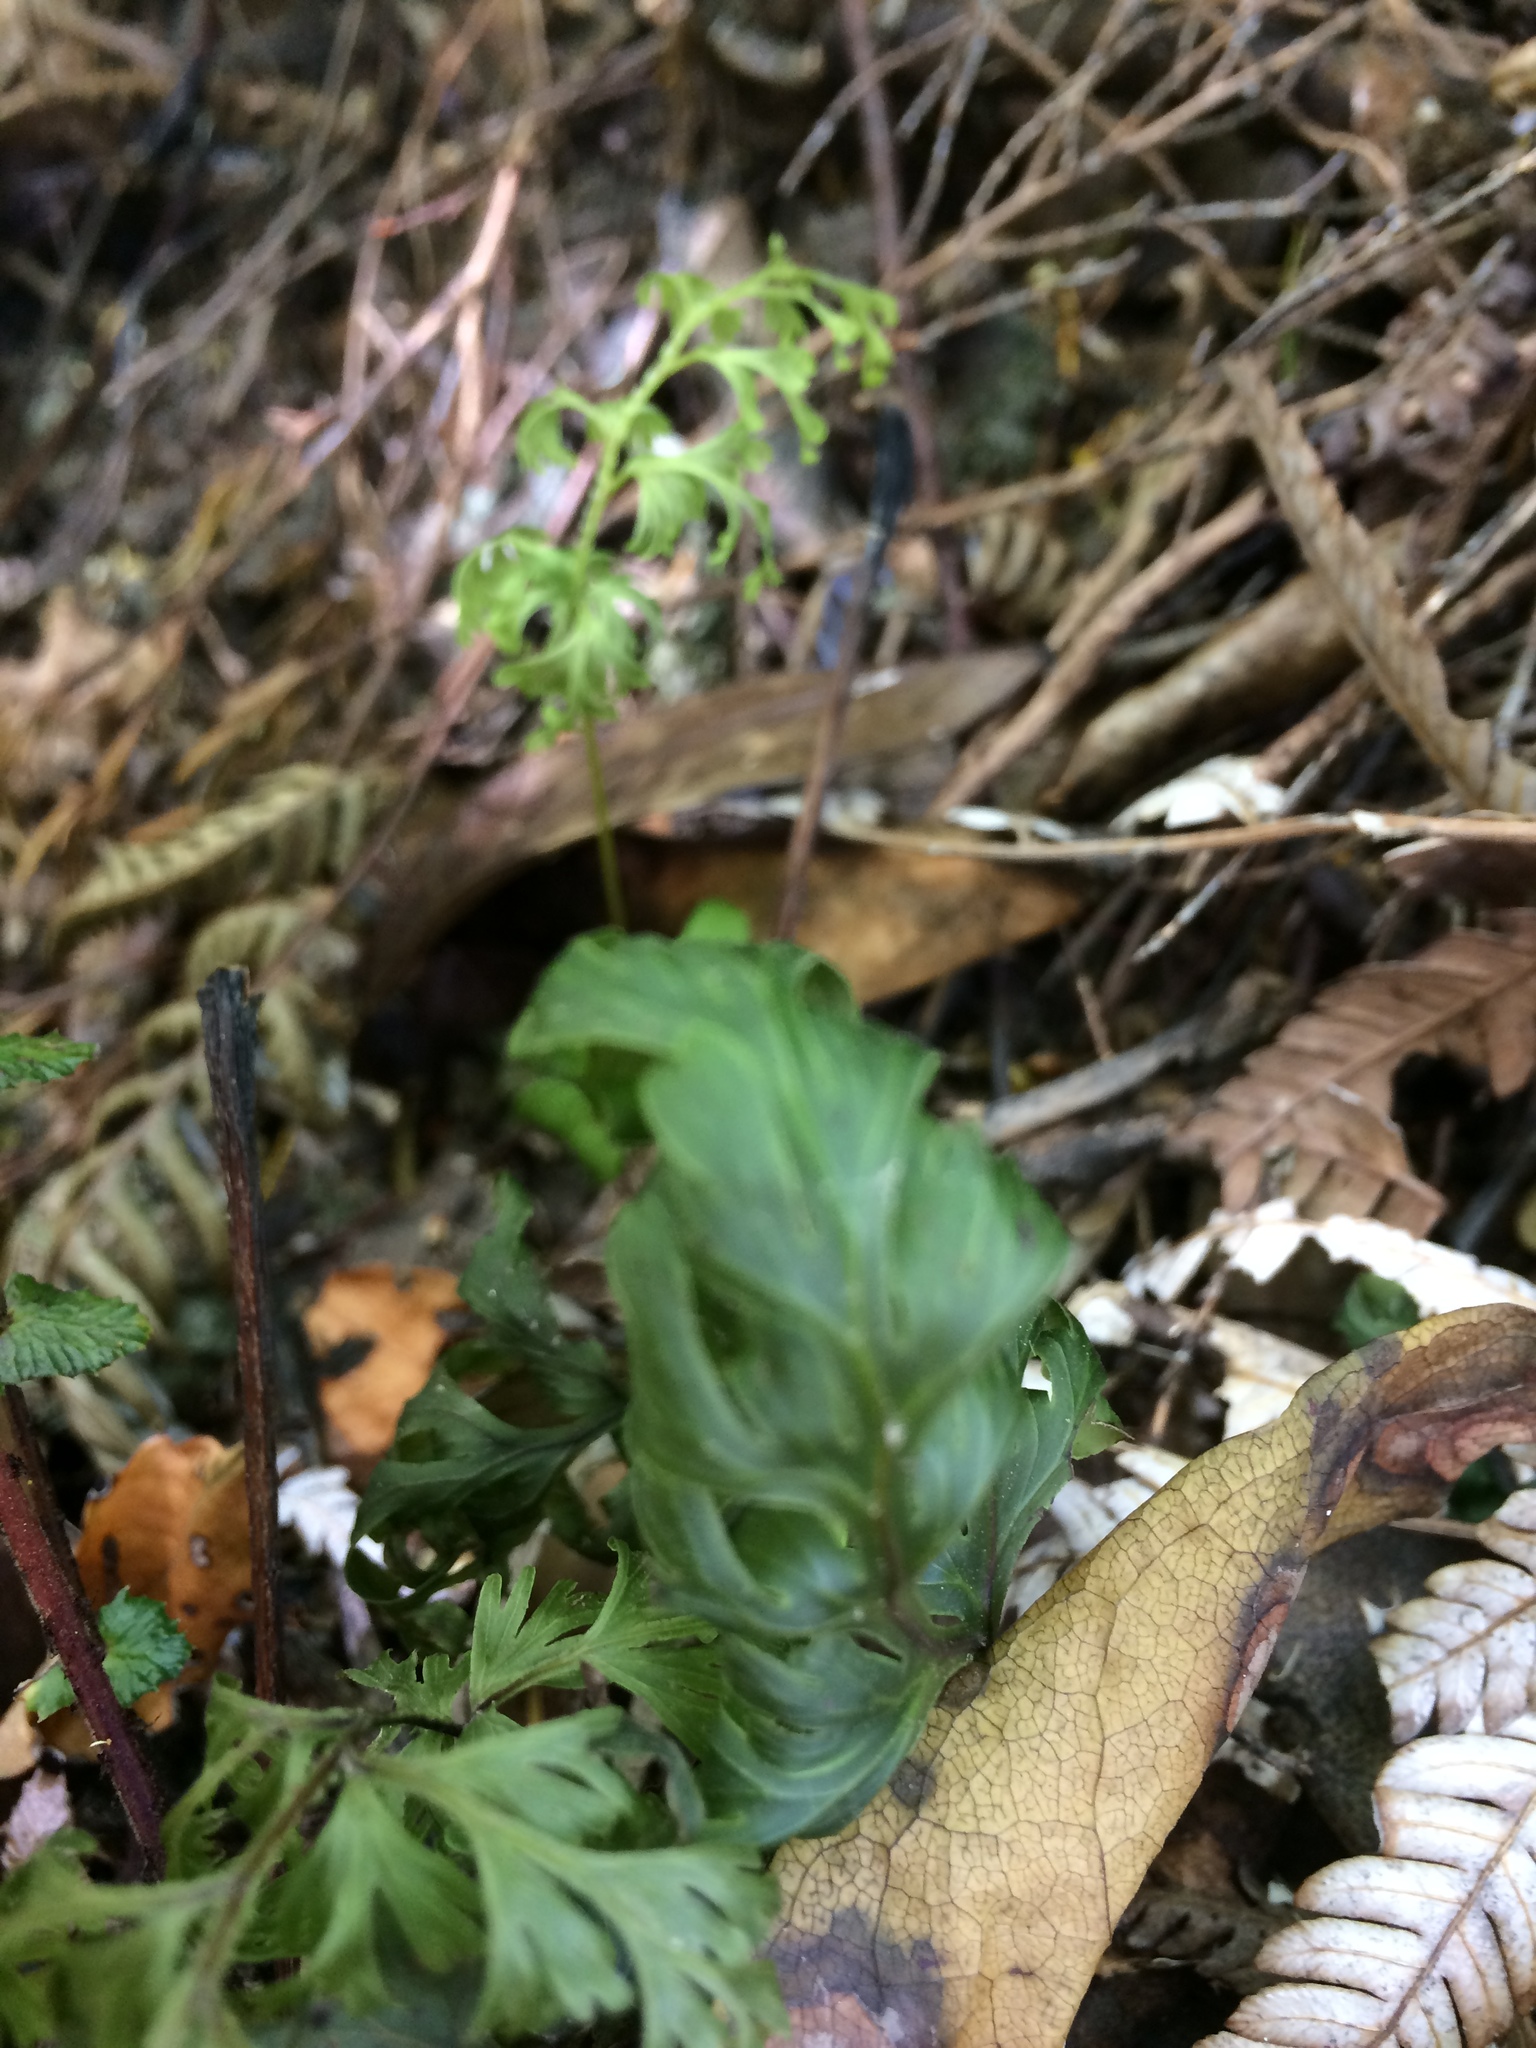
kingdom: Plantae
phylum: Tracheophyta
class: Polypodiopsida
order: Hymenophyllales
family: Hymenophyllaceae
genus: Hymenophyllum
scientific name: Hymenophyllum dilatatum
